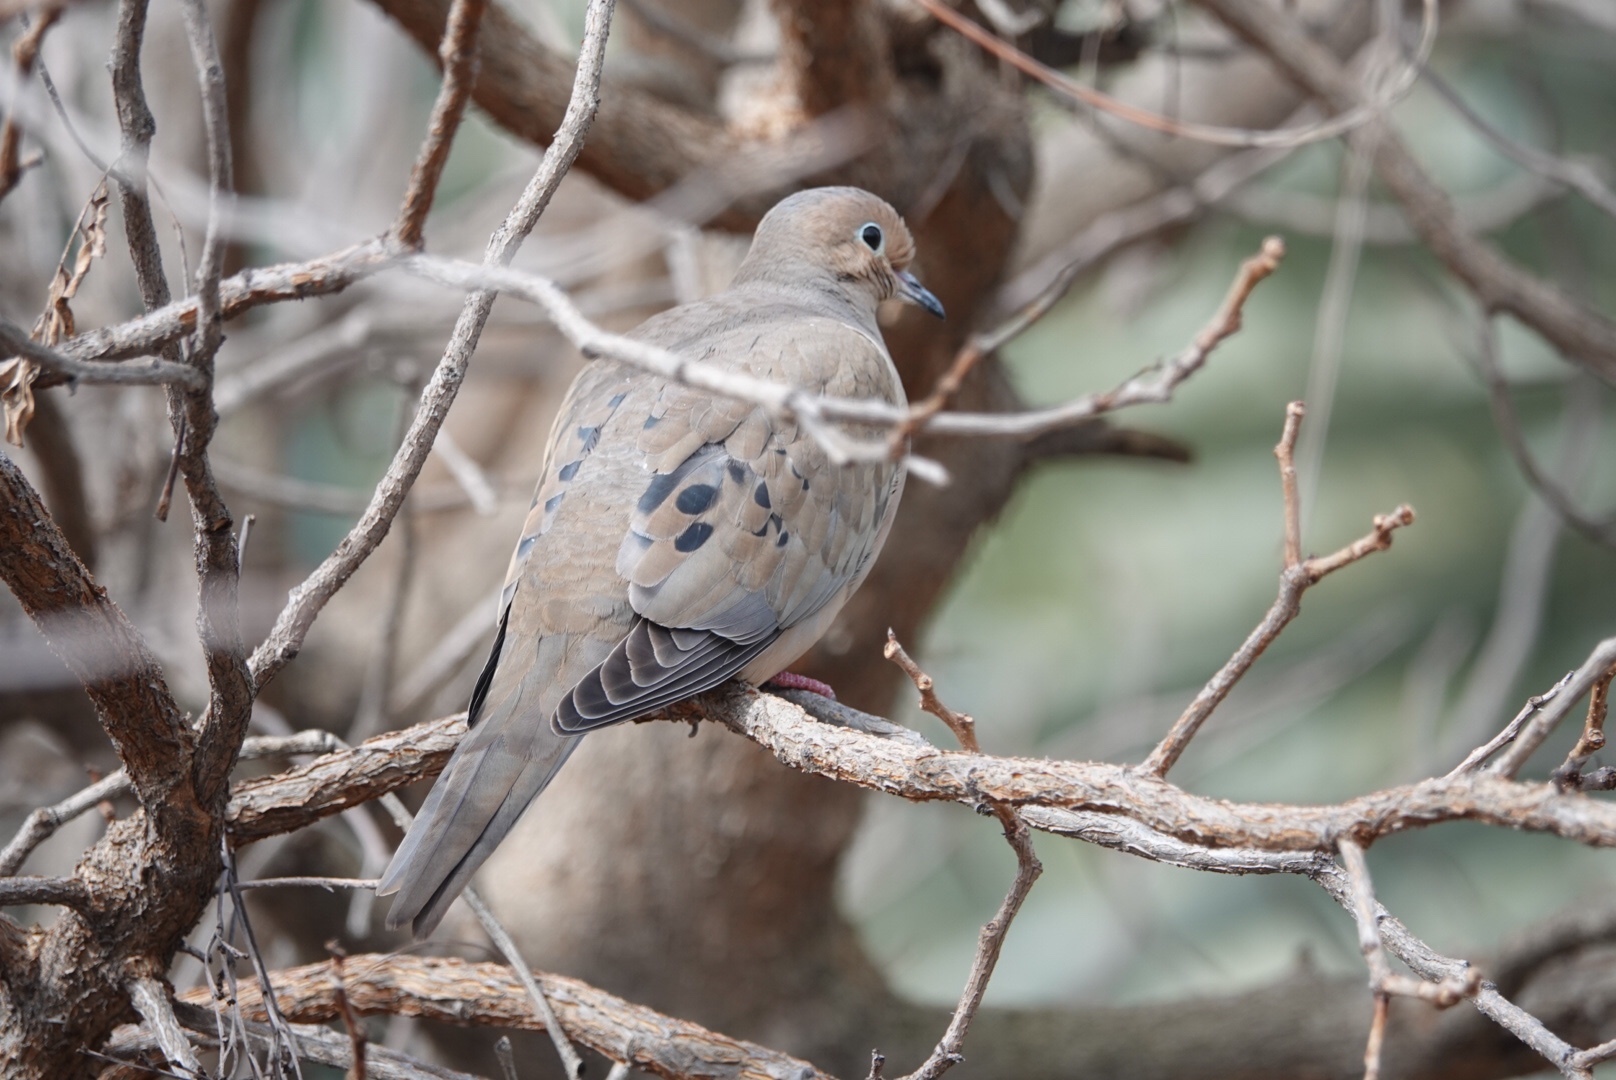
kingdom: Animalia
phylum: Chordata
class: Aves
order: Columbiformes
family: Columbidae
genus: Zenaida
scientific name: Zenaida macroura
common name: Mourning dove
